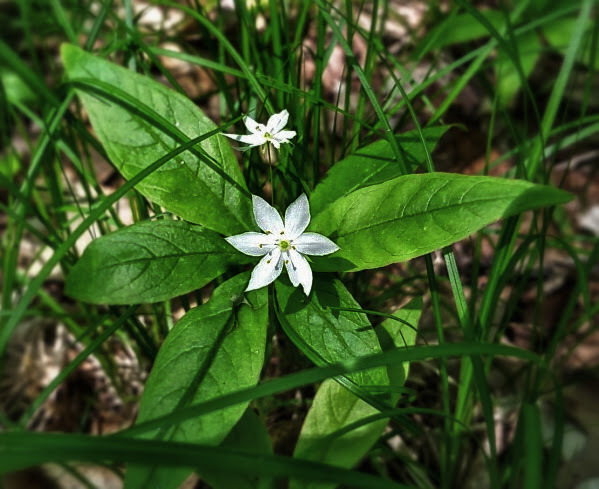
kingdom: Plantae
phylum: Tracheophyta
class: Magnoliopsida
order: Ericales
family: Primulaceae
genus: Lysimachia
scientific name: Lysimachia borealis
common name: American starflower
